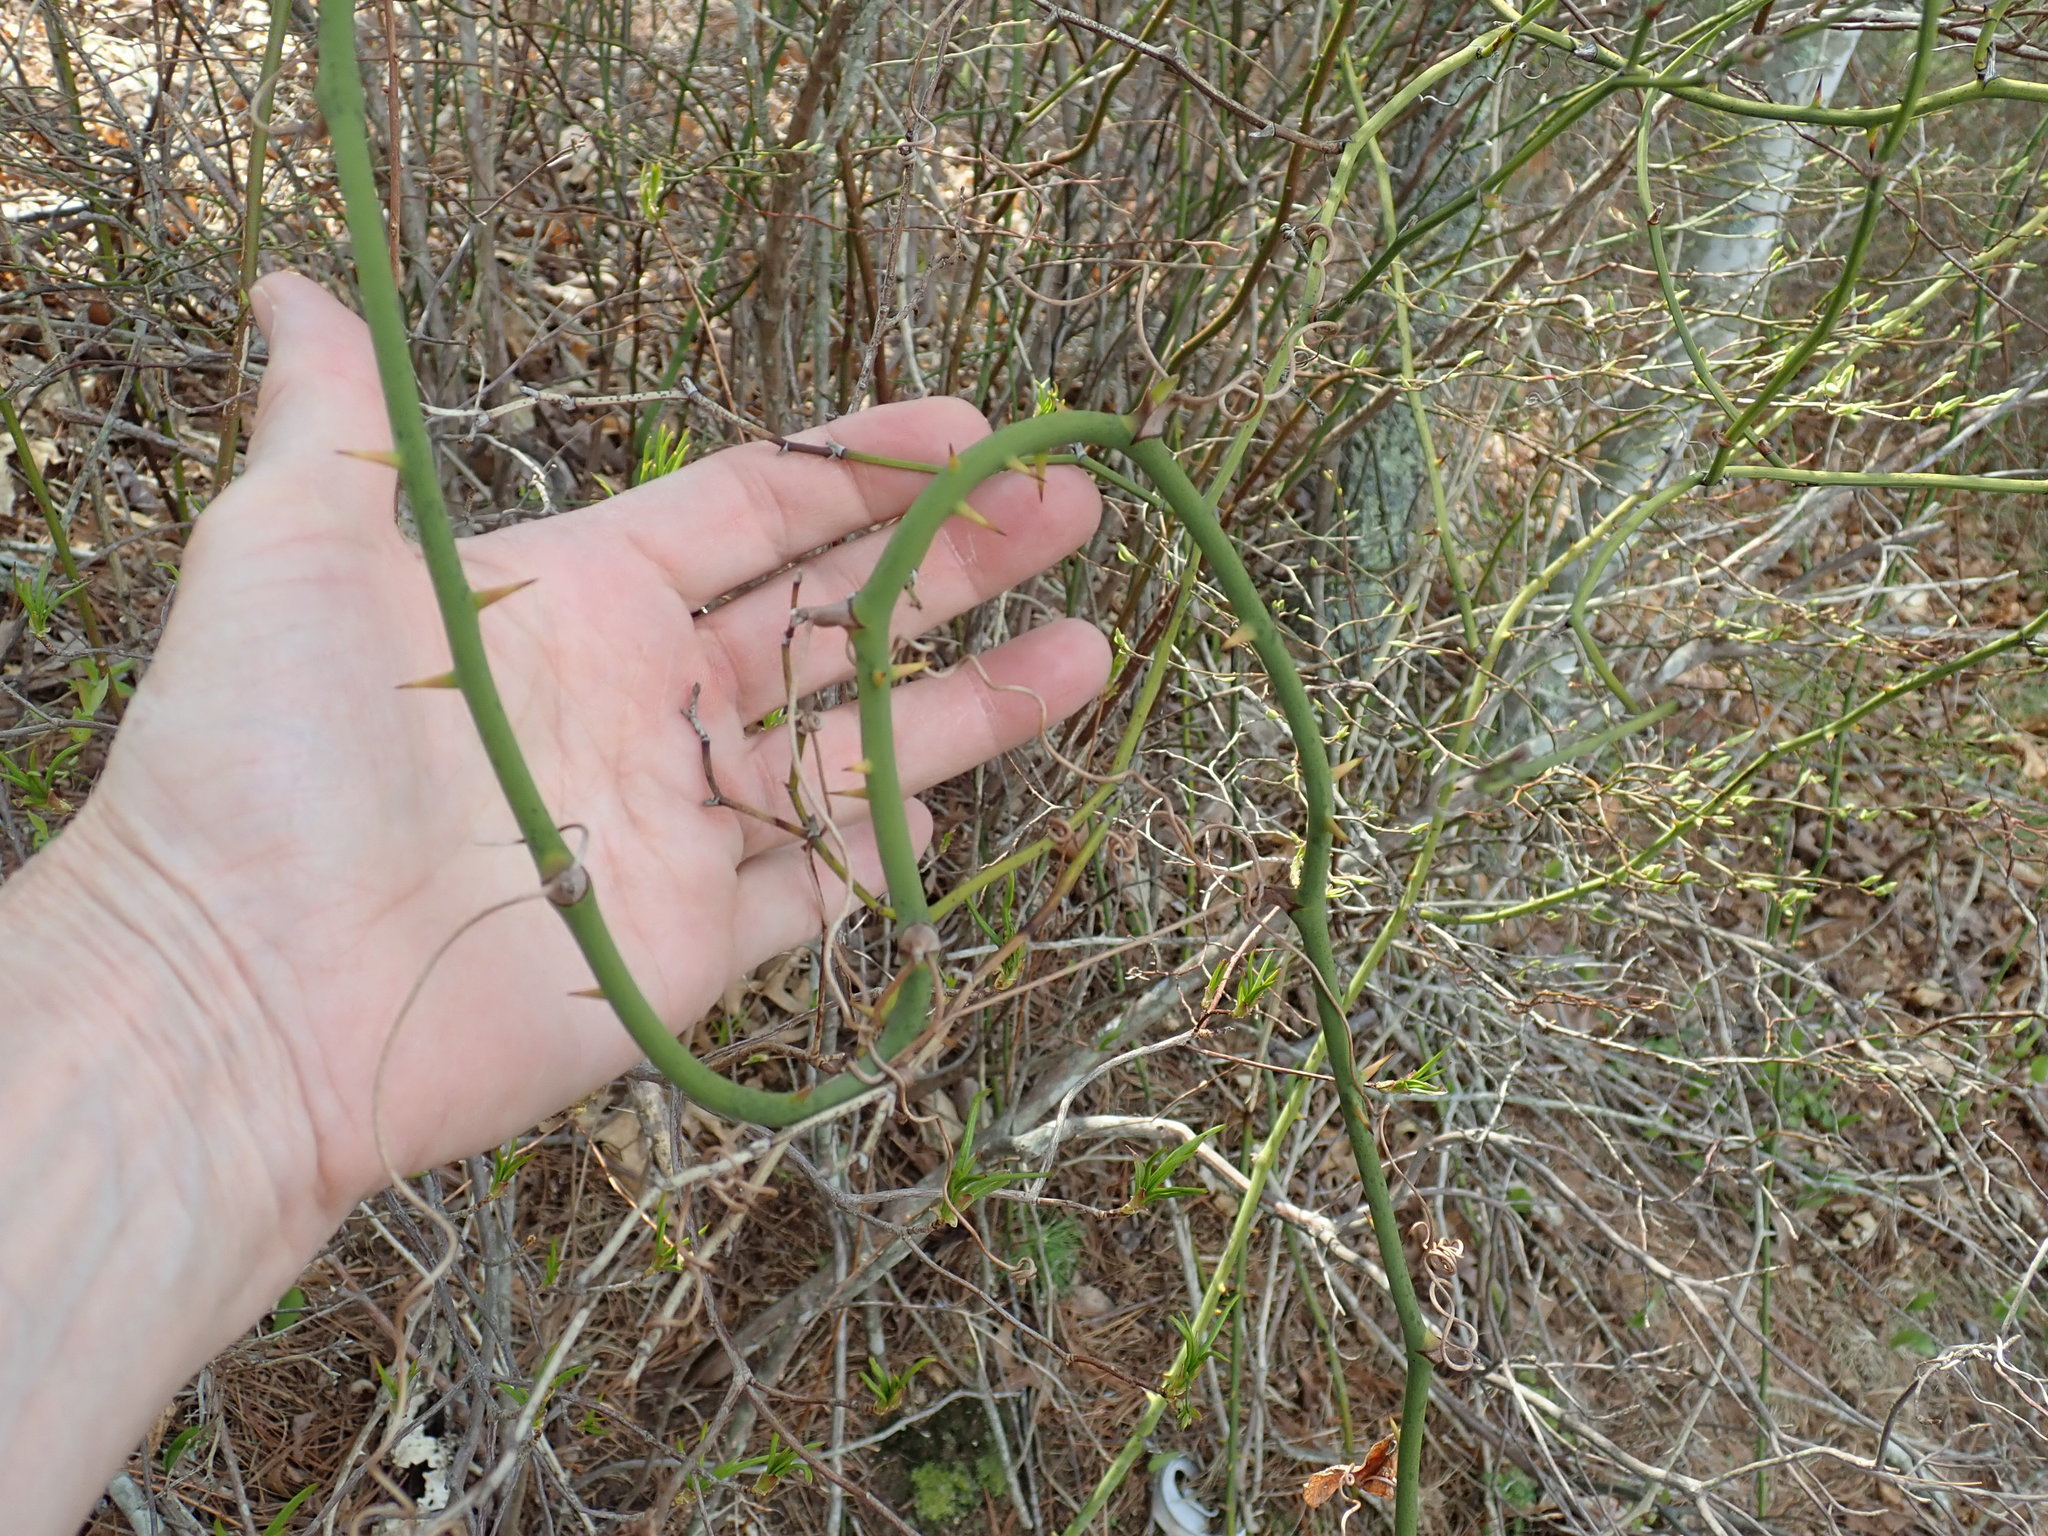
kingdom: Plantae
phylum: Tracheophyta
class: Liliopsida
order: Liliales
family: Smilacaceae
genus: Smilax
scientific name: Smilax rotundifolia
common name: Bullbriar
